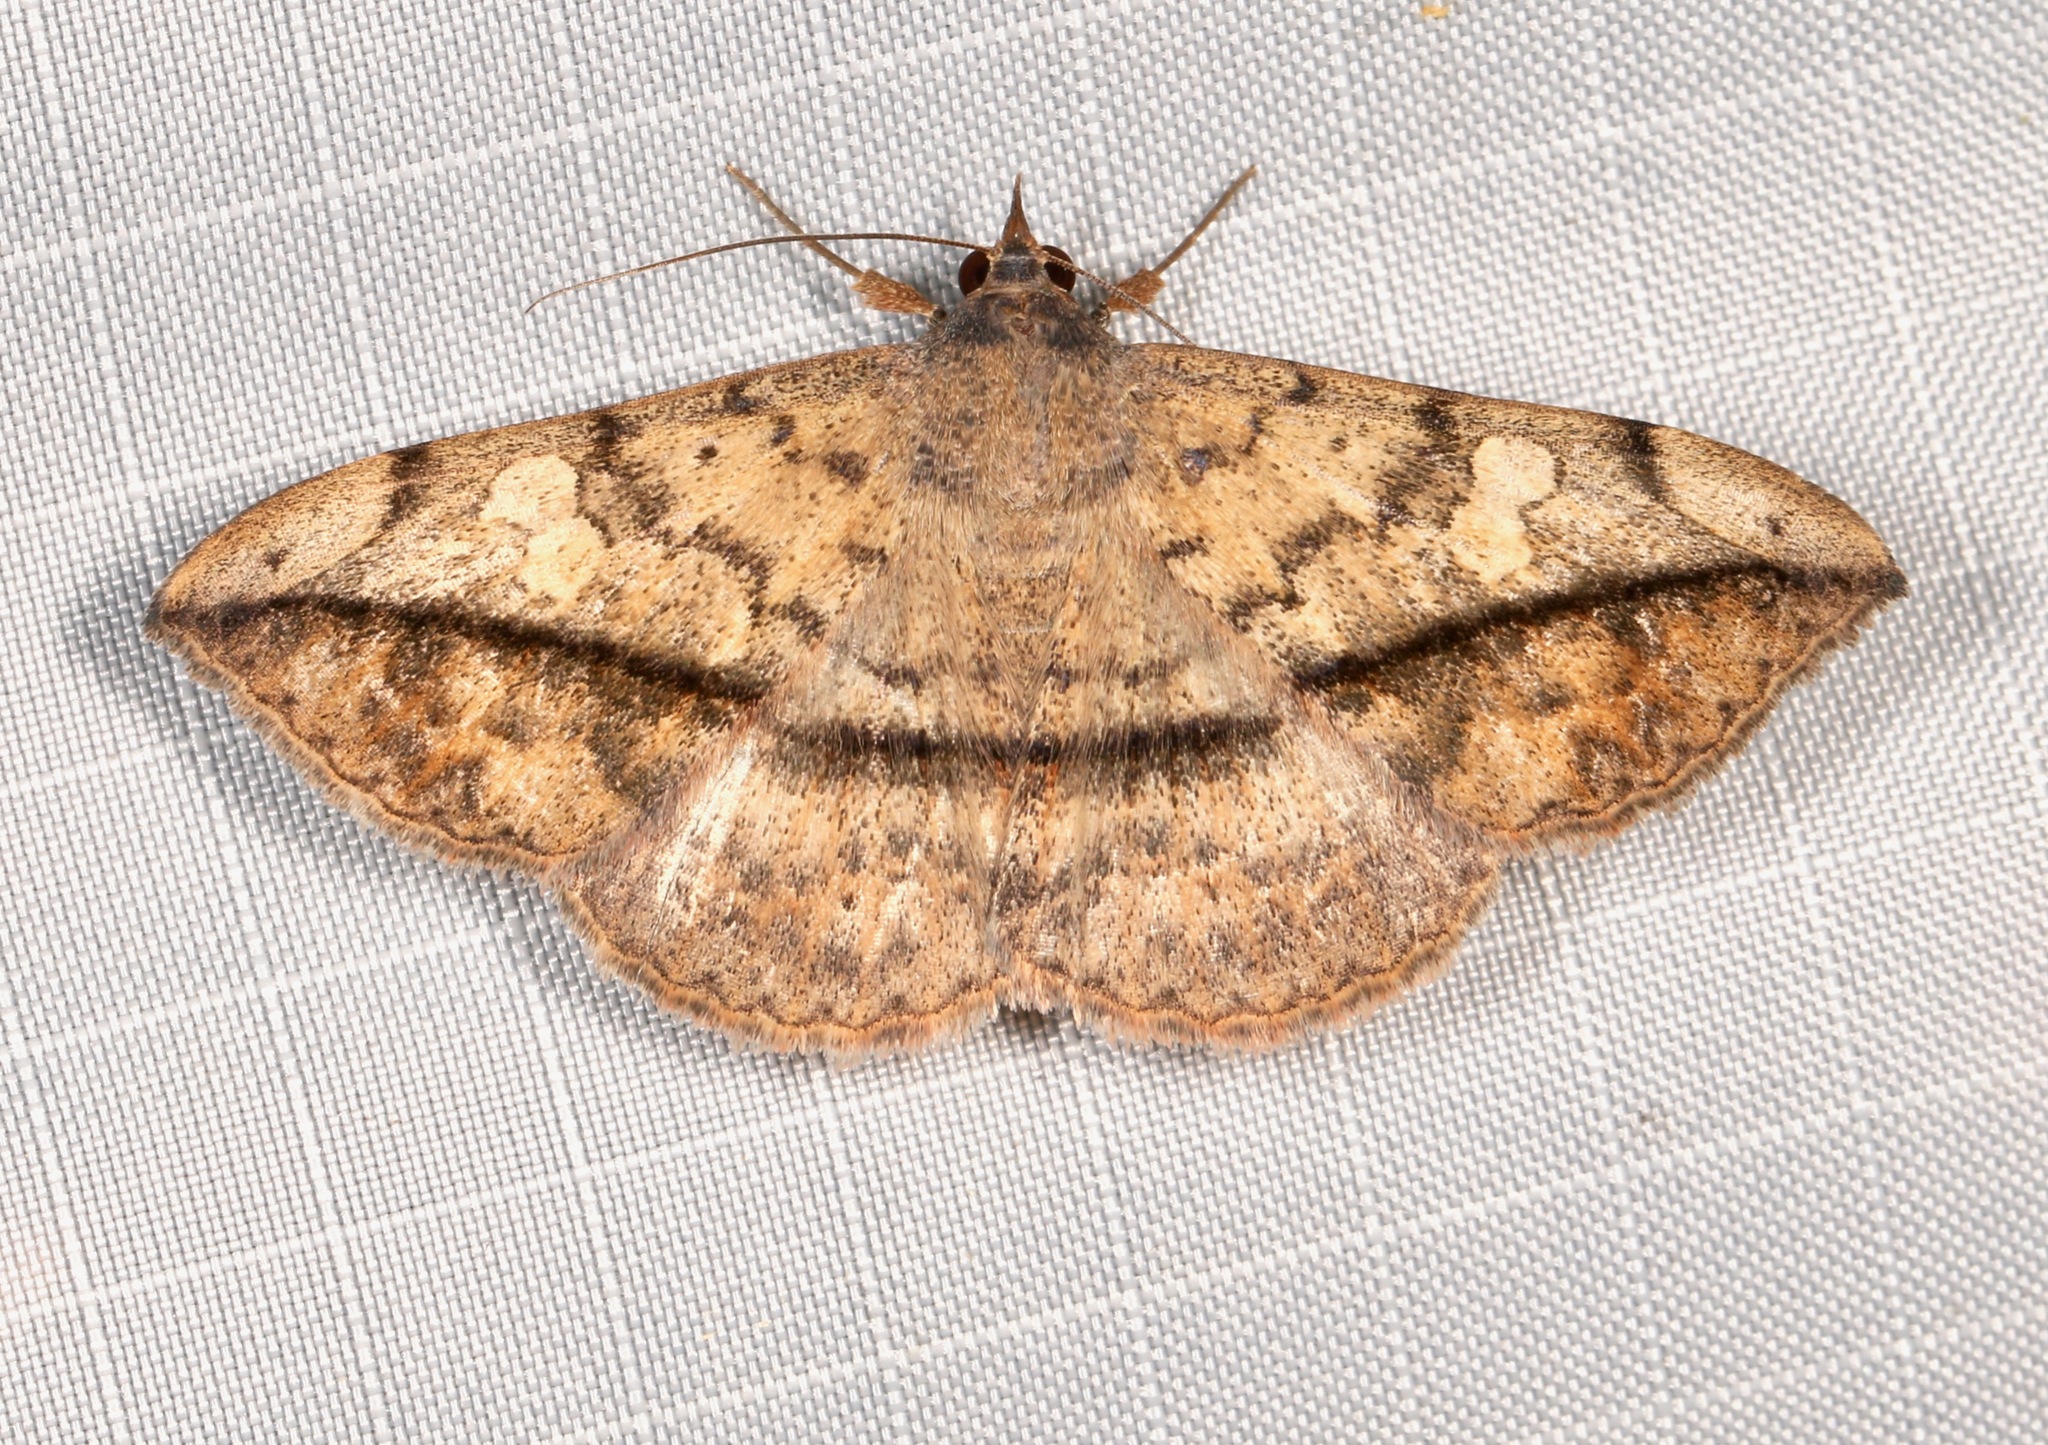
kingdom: Animalia
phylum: Arthropoda
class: Insecta
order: Lepidoptera
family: Erebidae
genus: Anticarsia
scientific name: Anticarsia gemmatalis
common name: Cutworm moth
